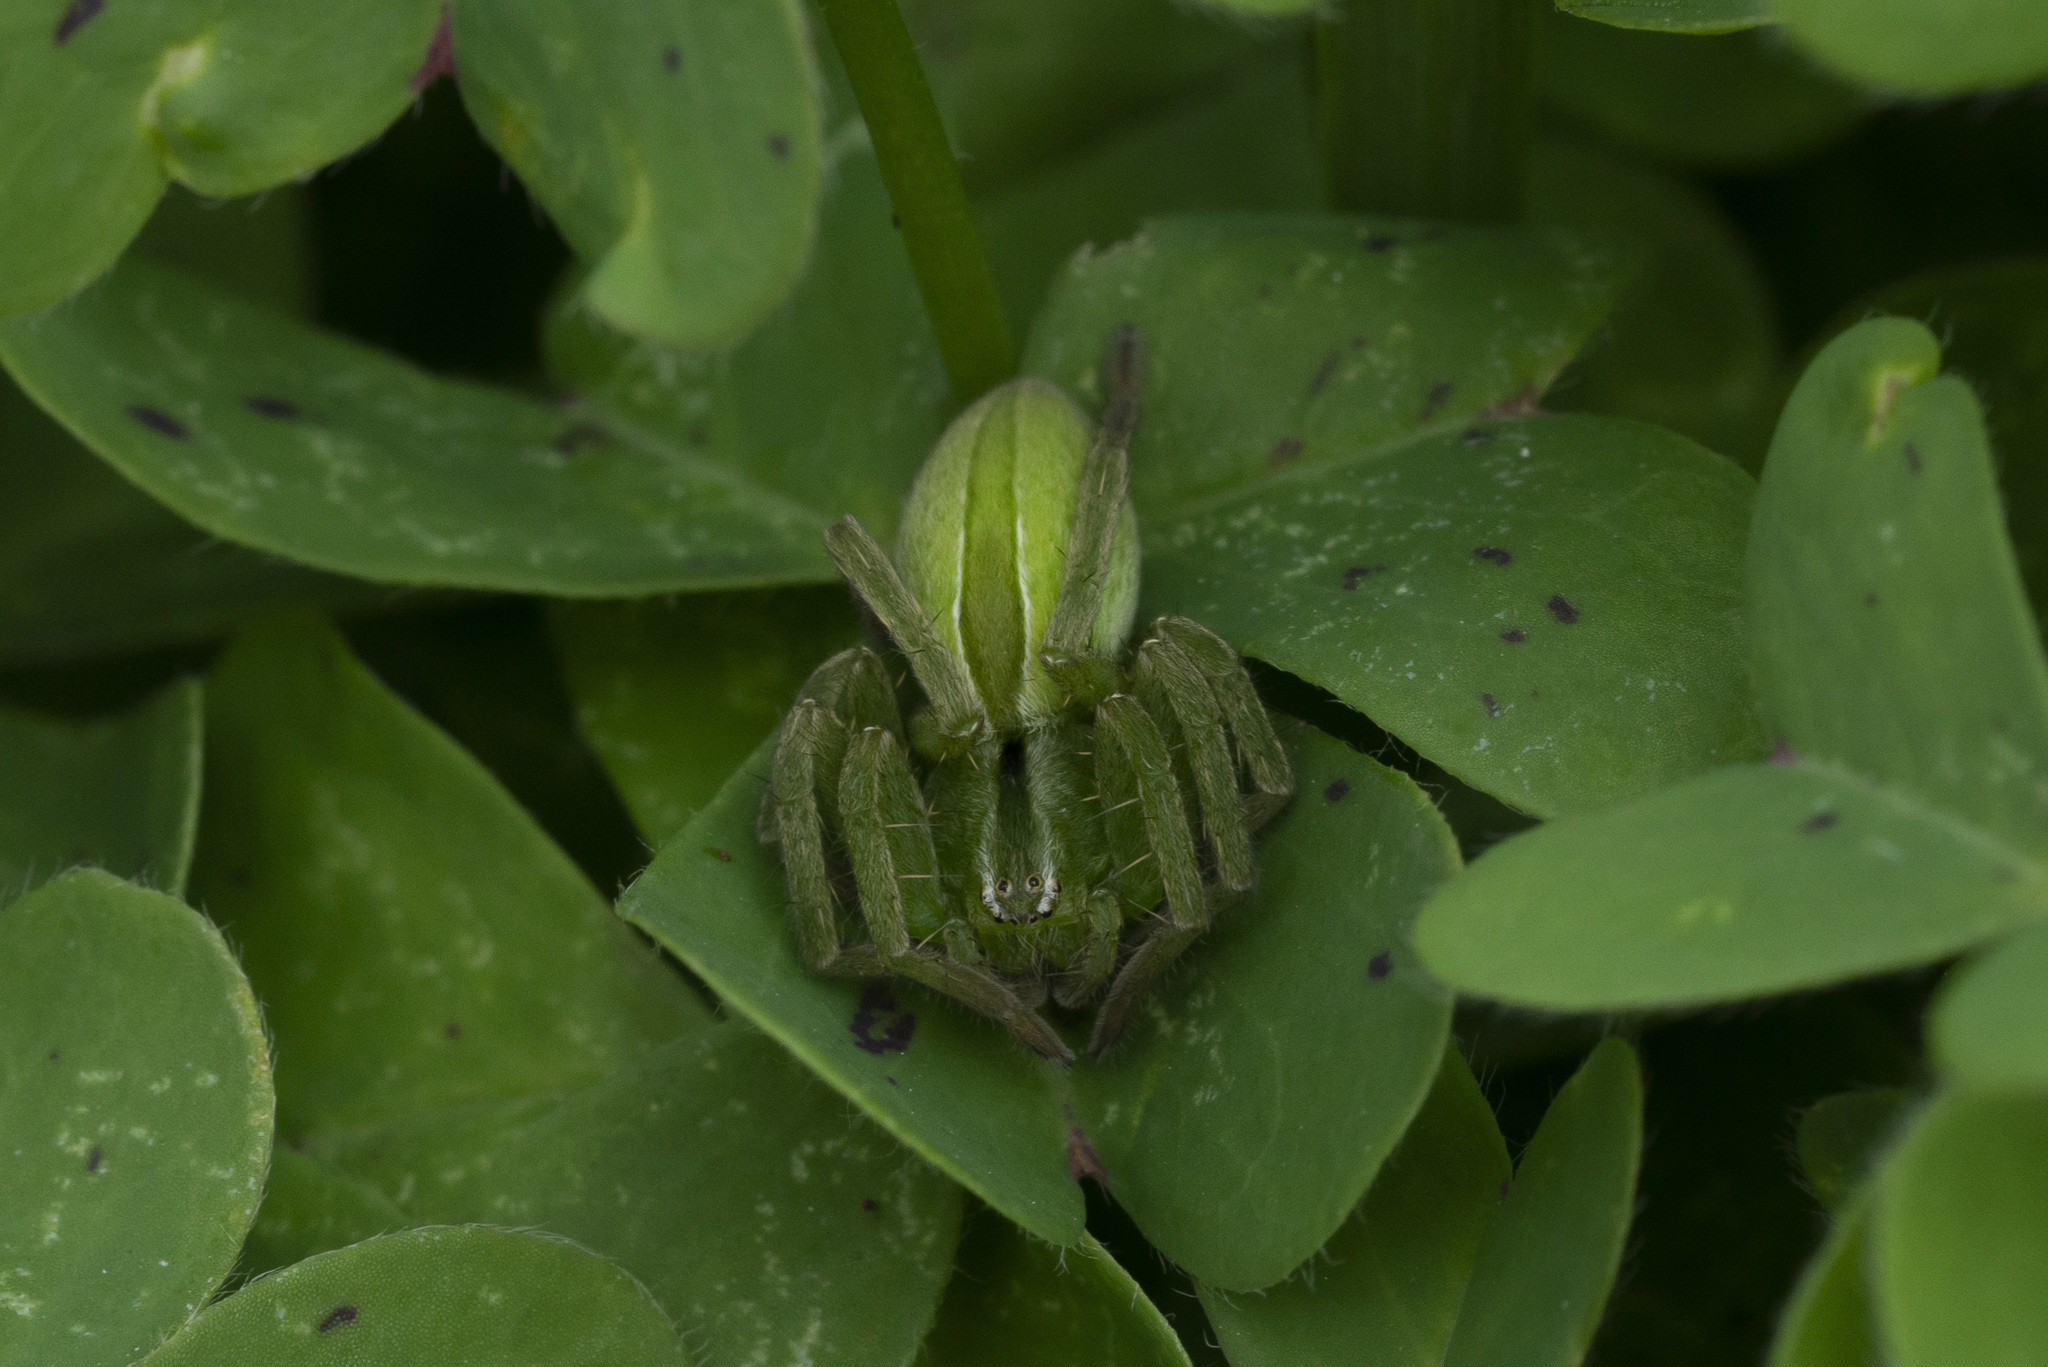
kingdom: Animalia
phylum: Arthropoda
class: Arachnida
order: Araneae
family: Sparassidae
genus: Micrommata
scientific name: Micrommata ligurina
